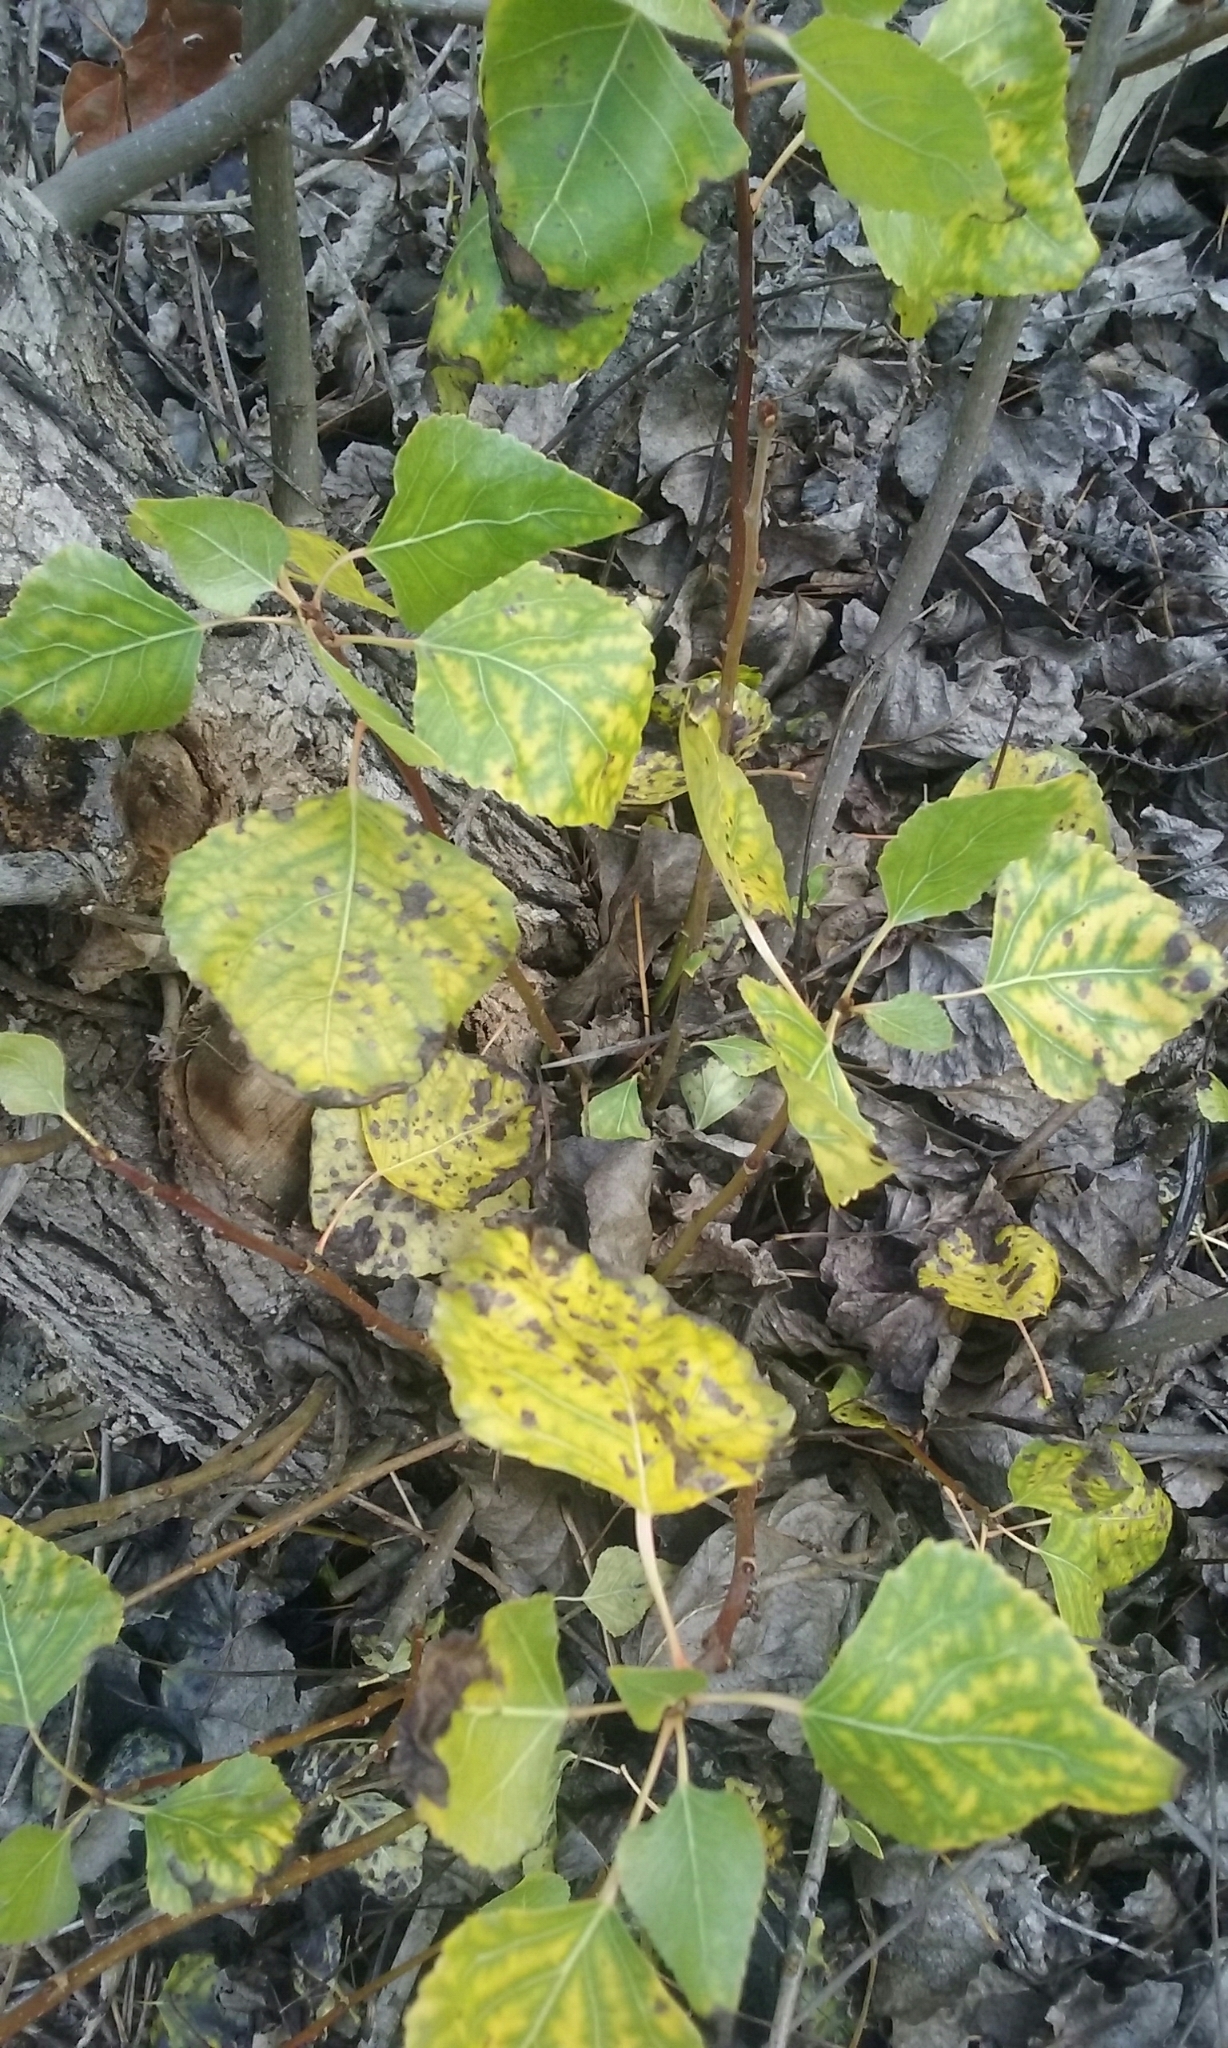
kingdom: Plantae
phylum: Tracheophyta
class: Magnoliopsida
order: Malpighiales
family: Salicaceae
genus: Populus
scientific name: Populus fremontii
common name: Fremont's cottonwood
